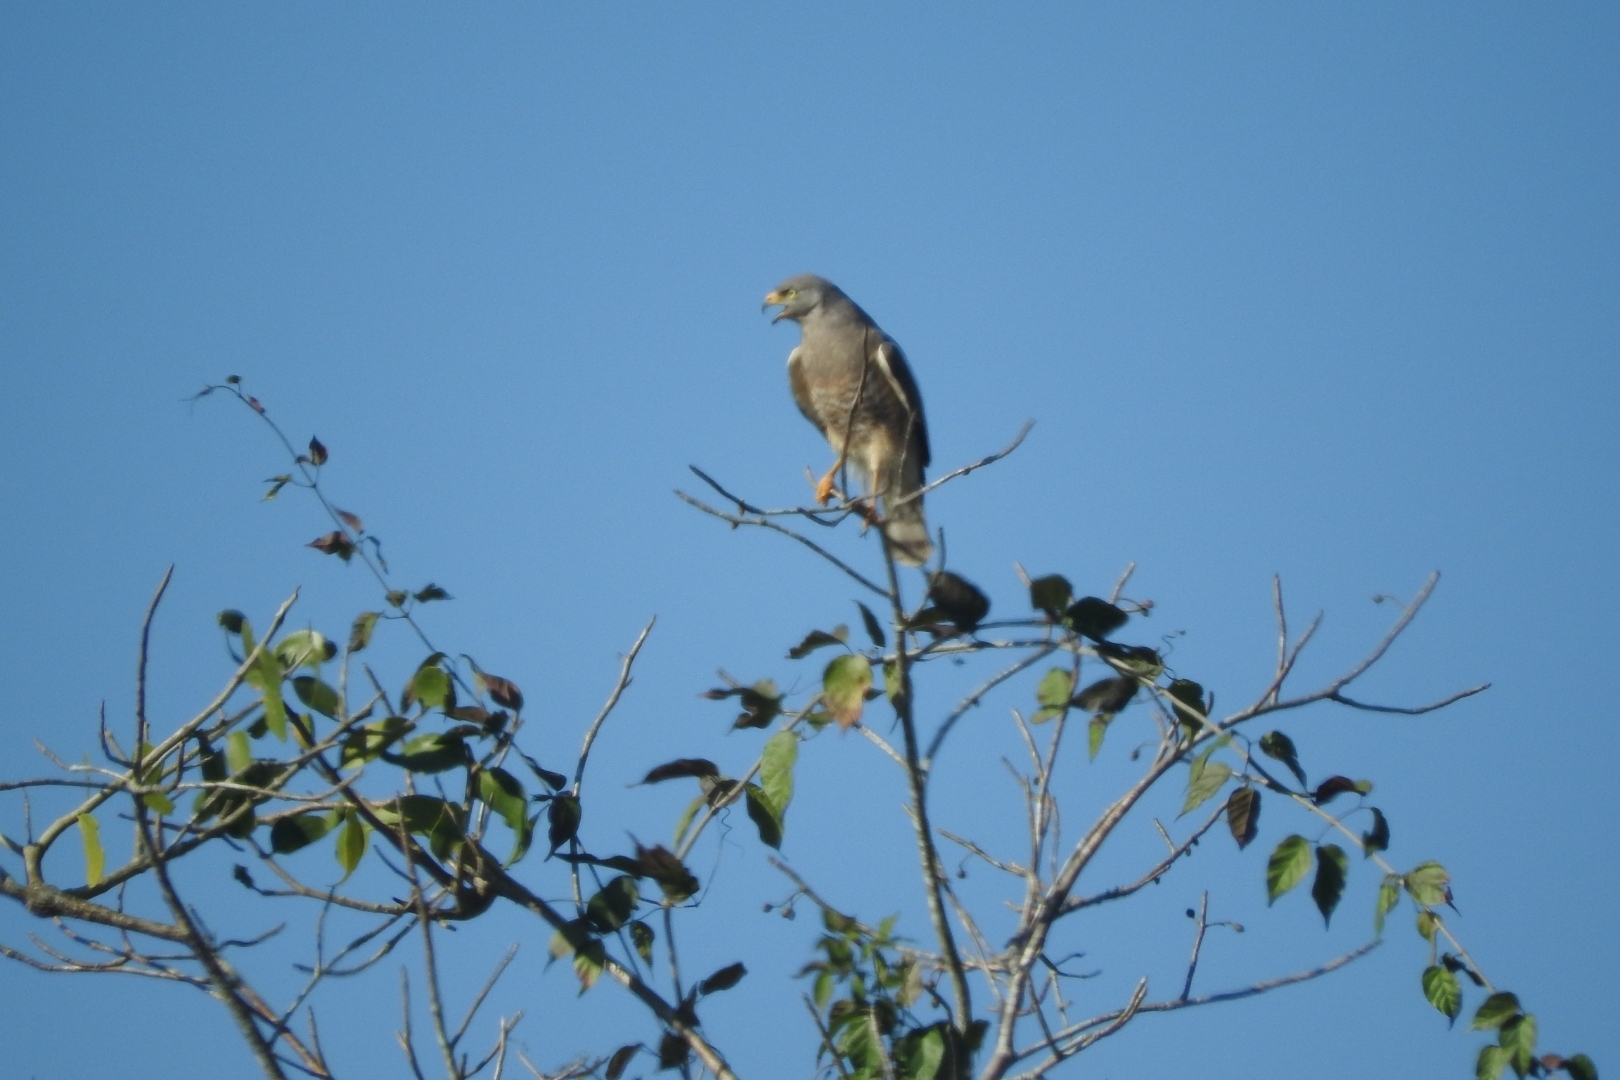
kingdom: Animalia
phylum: Chordata
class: Aves
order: Accipitriformes
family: Accipitridae
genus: Rupornis
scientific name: Rupornis magnirostris
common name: Roadside hawk
